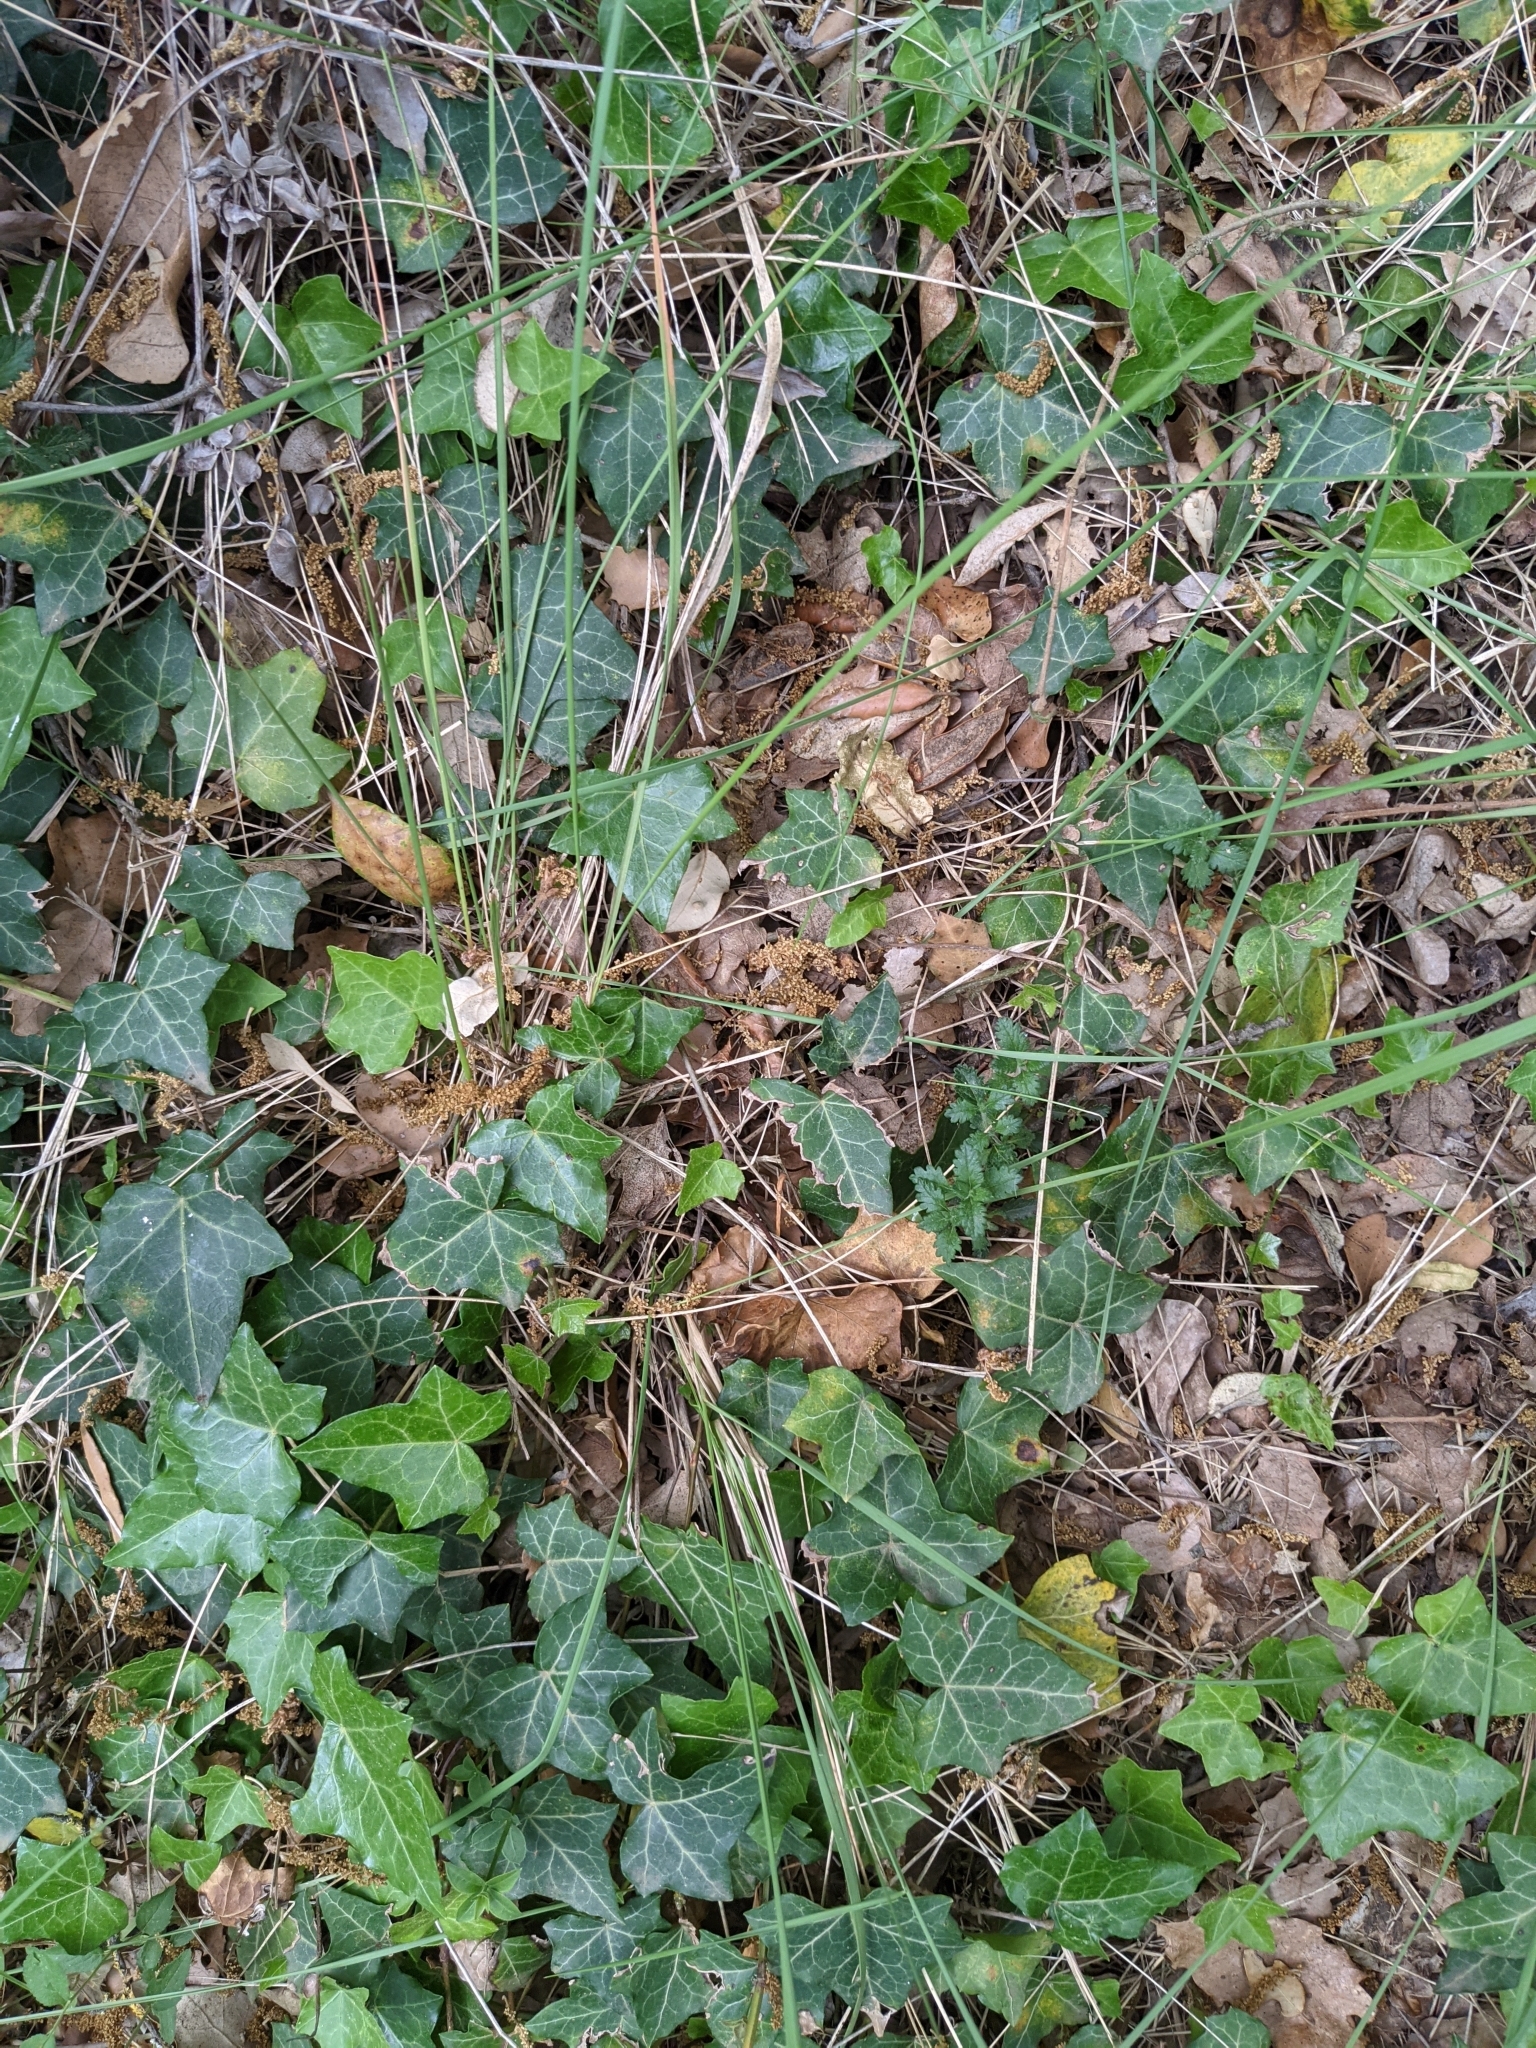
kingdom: Plantae
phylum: Tracheophyta
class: Magnoliopsida
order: Apiales
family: Araliaceae
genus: Hedera
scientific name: Hedera helix
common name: Ivy
